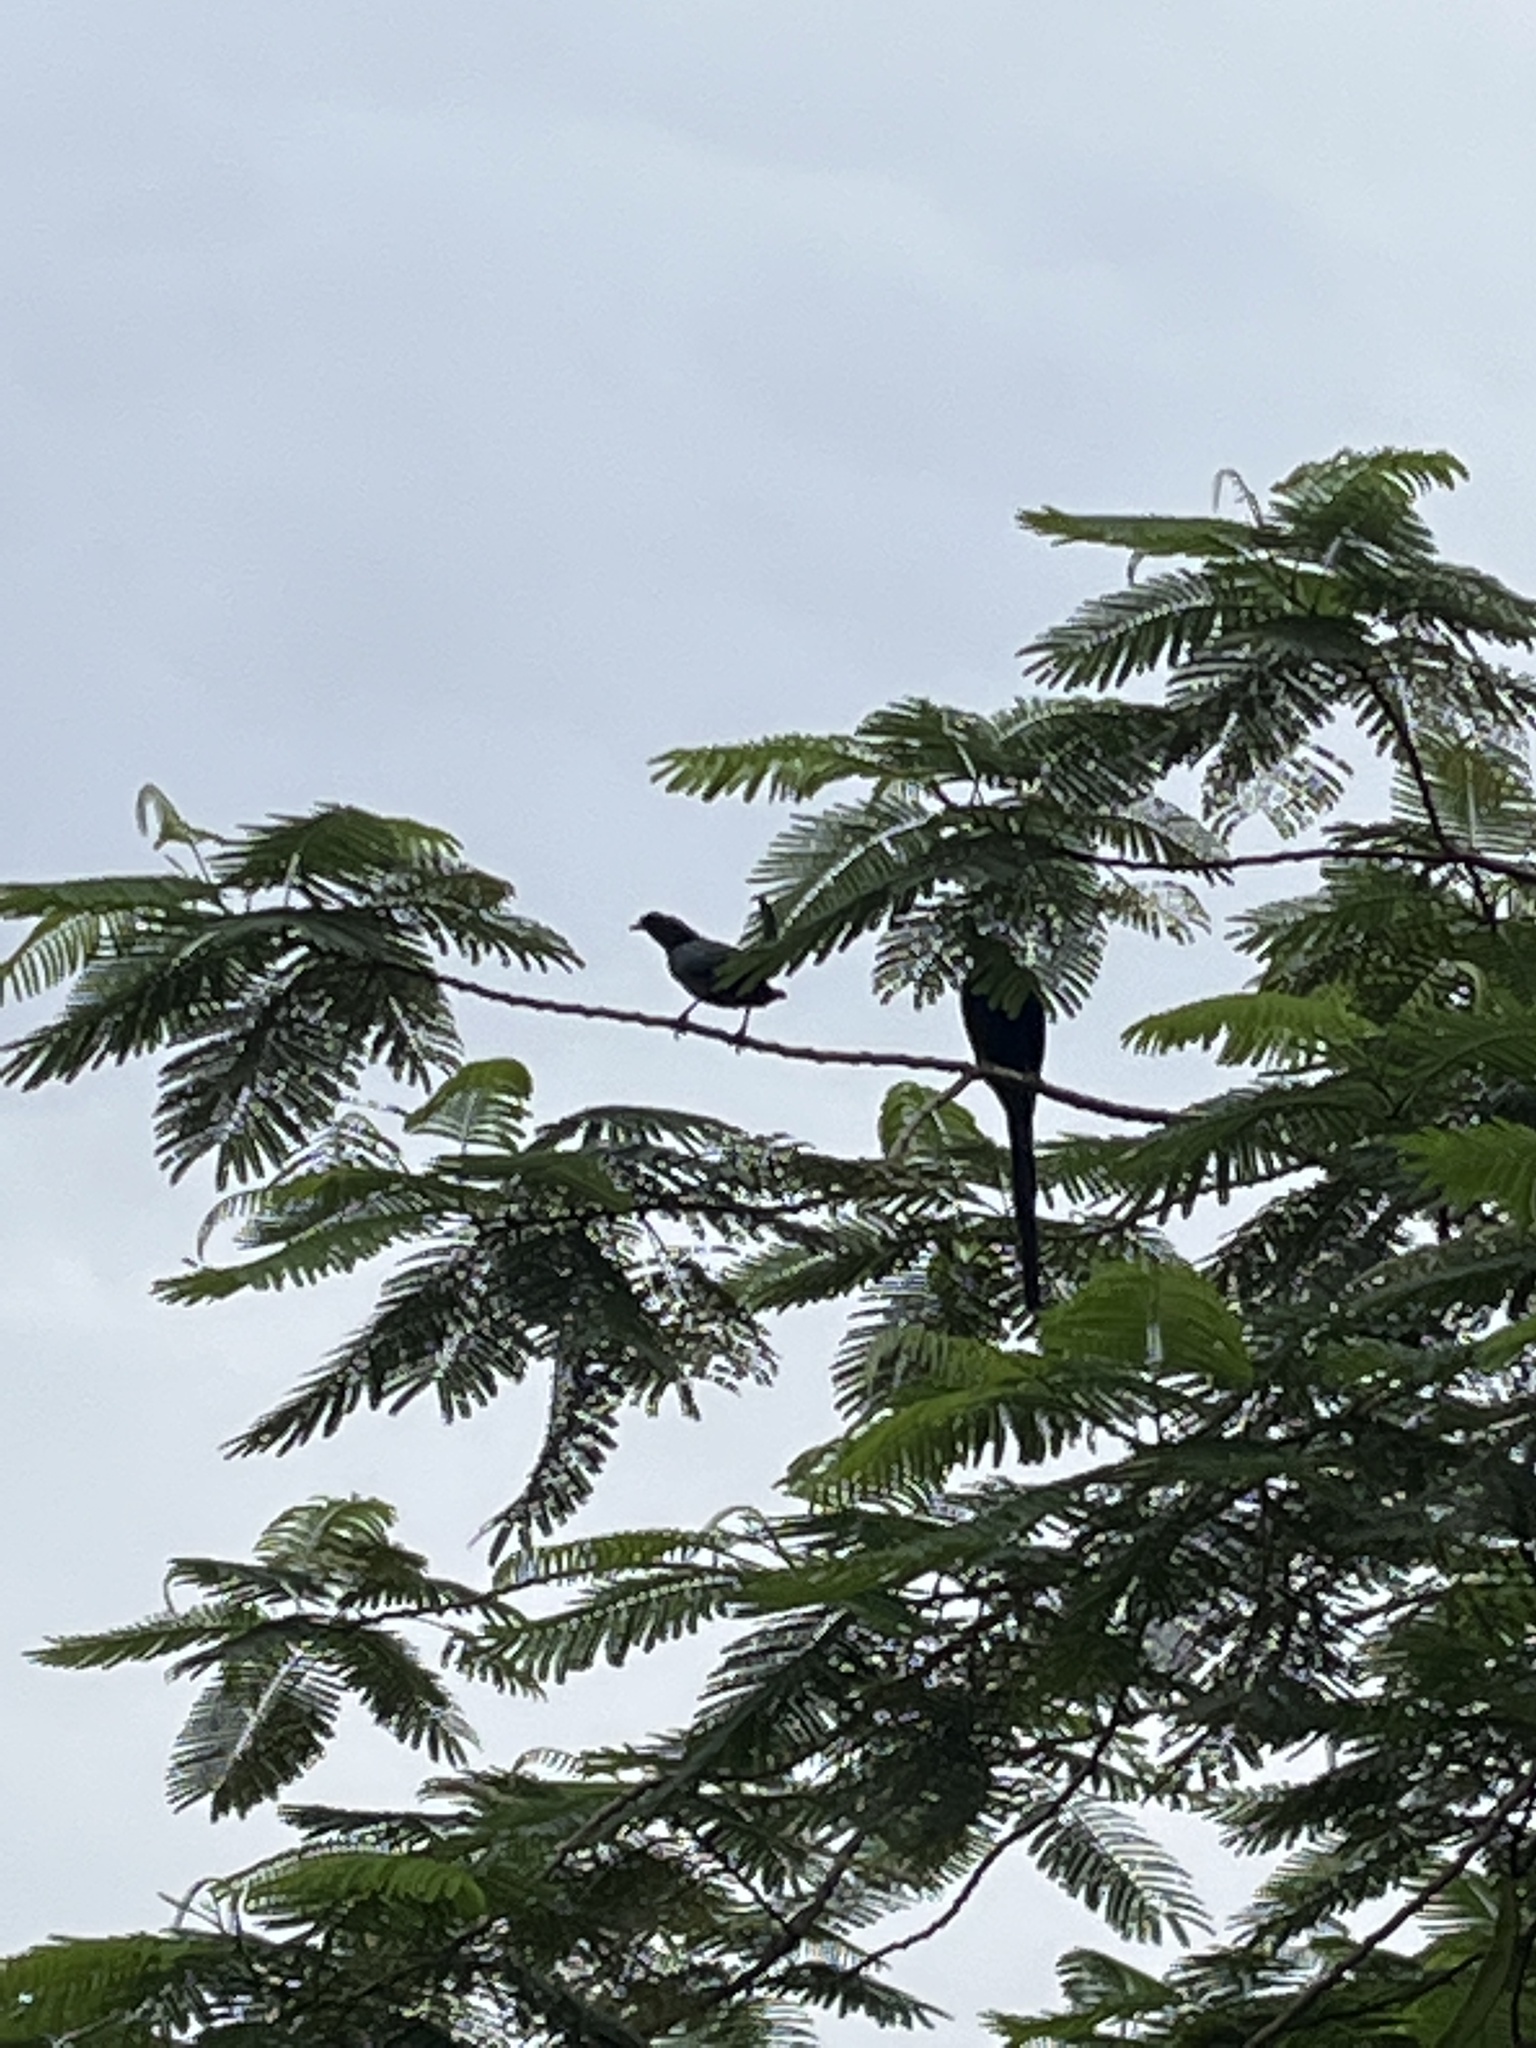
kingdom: Animalia
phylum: Chordata
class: Aves
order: Passeriformes
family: Sturnidae
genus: Onychognathus
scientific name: Onychognathus salvadorii
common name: Bristle-crowned starling
